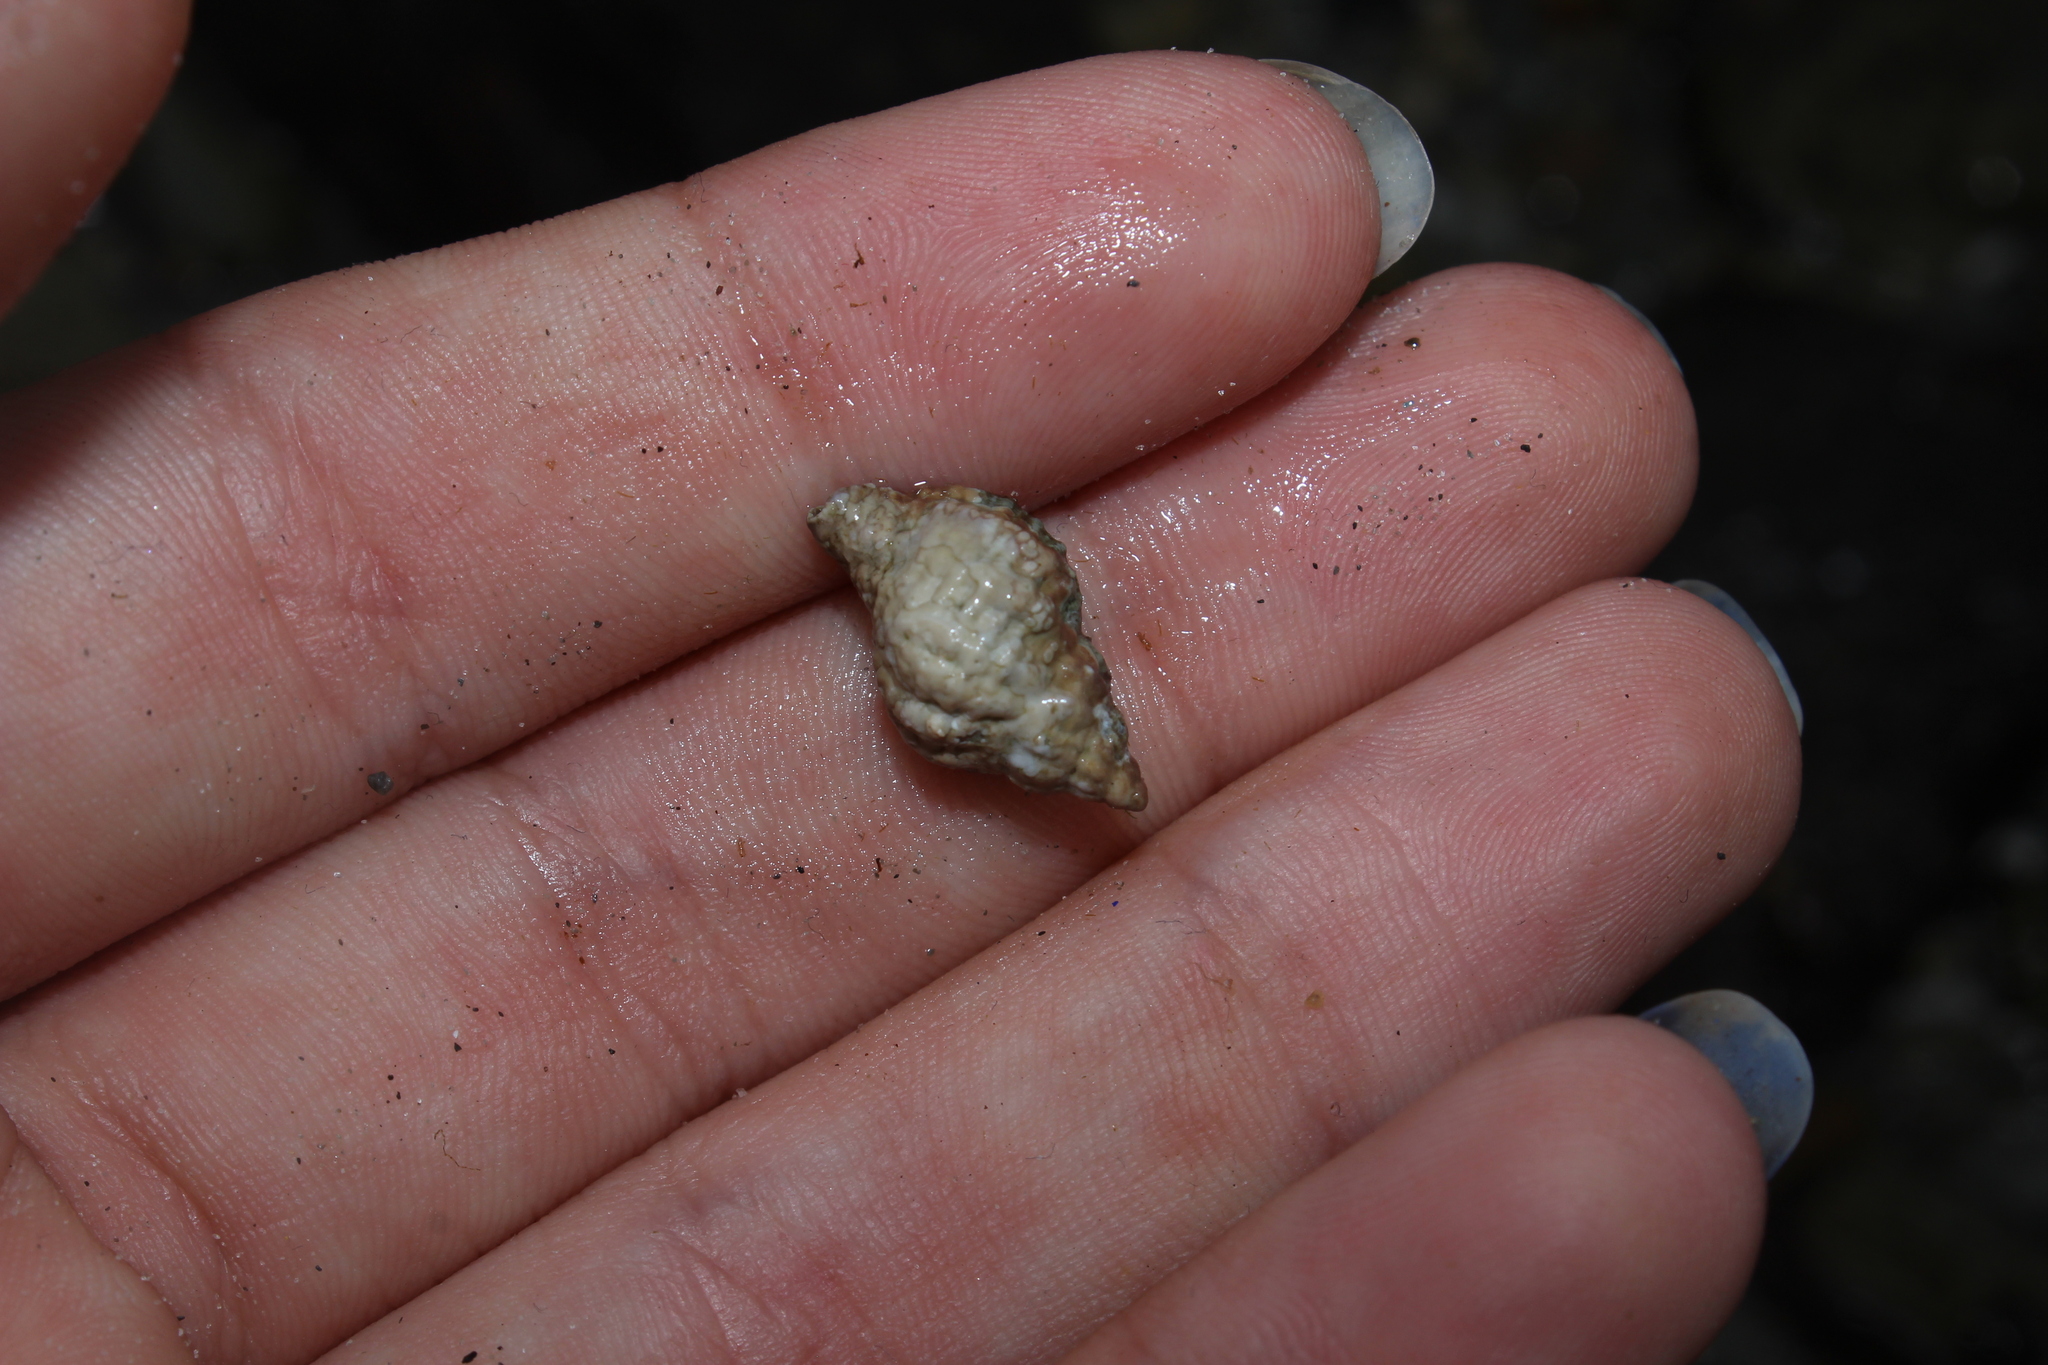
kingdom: Animalia
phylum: Mollusca
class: Gastropoda
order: Neogastropoda
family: Muricidae
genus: Urosalpinx
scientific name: Urosalpinx cinerea
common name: American sting winkle
